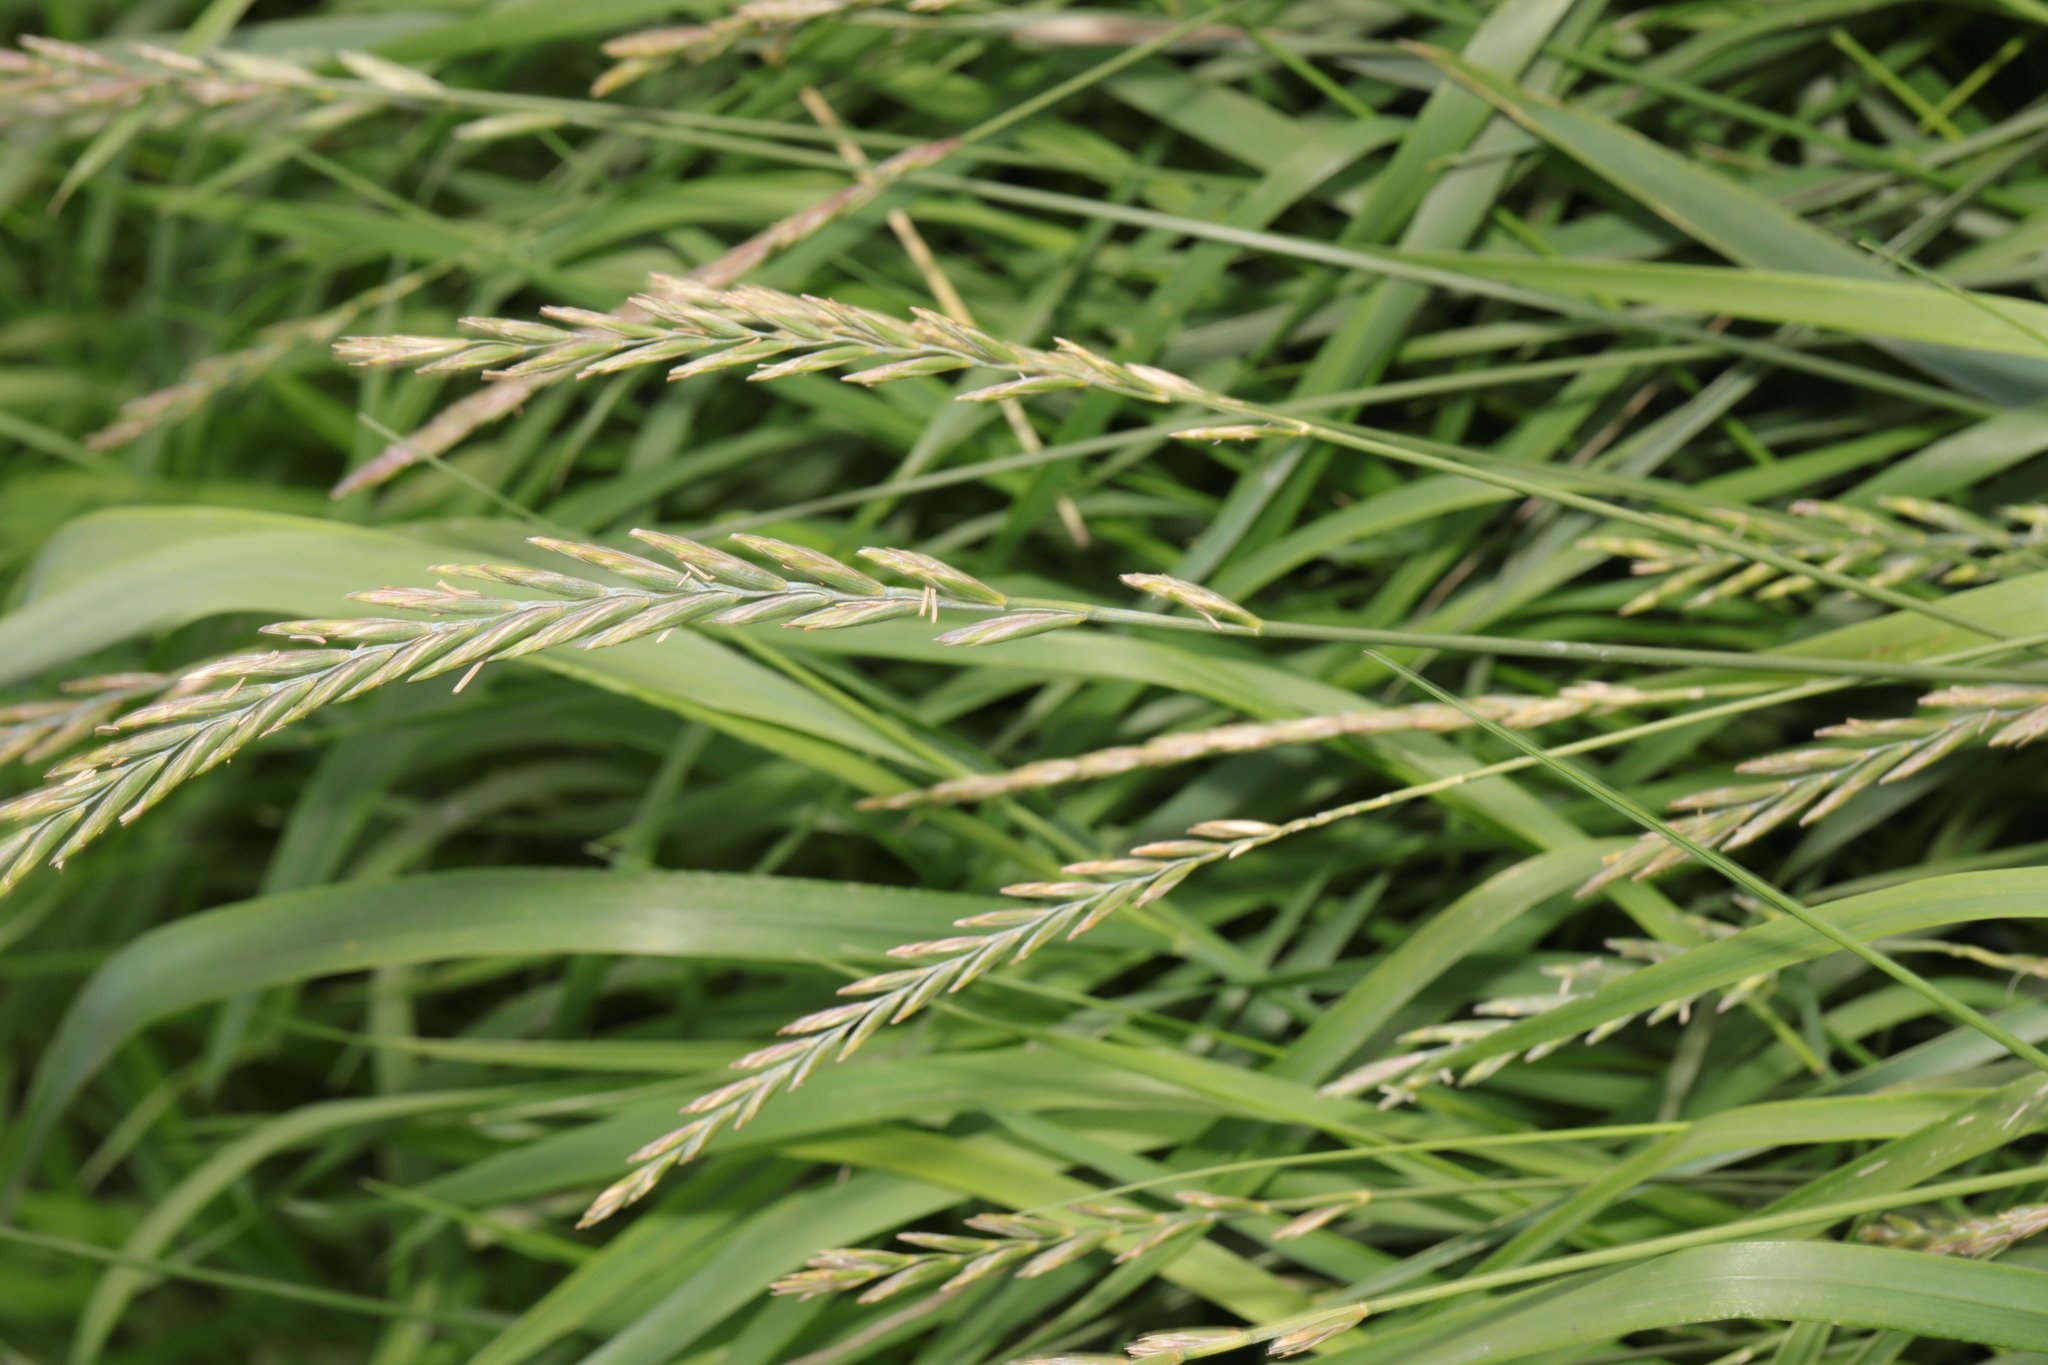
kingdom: Plantae
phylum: Tracheophyta
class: Liliopsida
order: Poales
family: Poaceae
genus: Elymus
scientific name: Elymus repens
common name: Quackgrass
